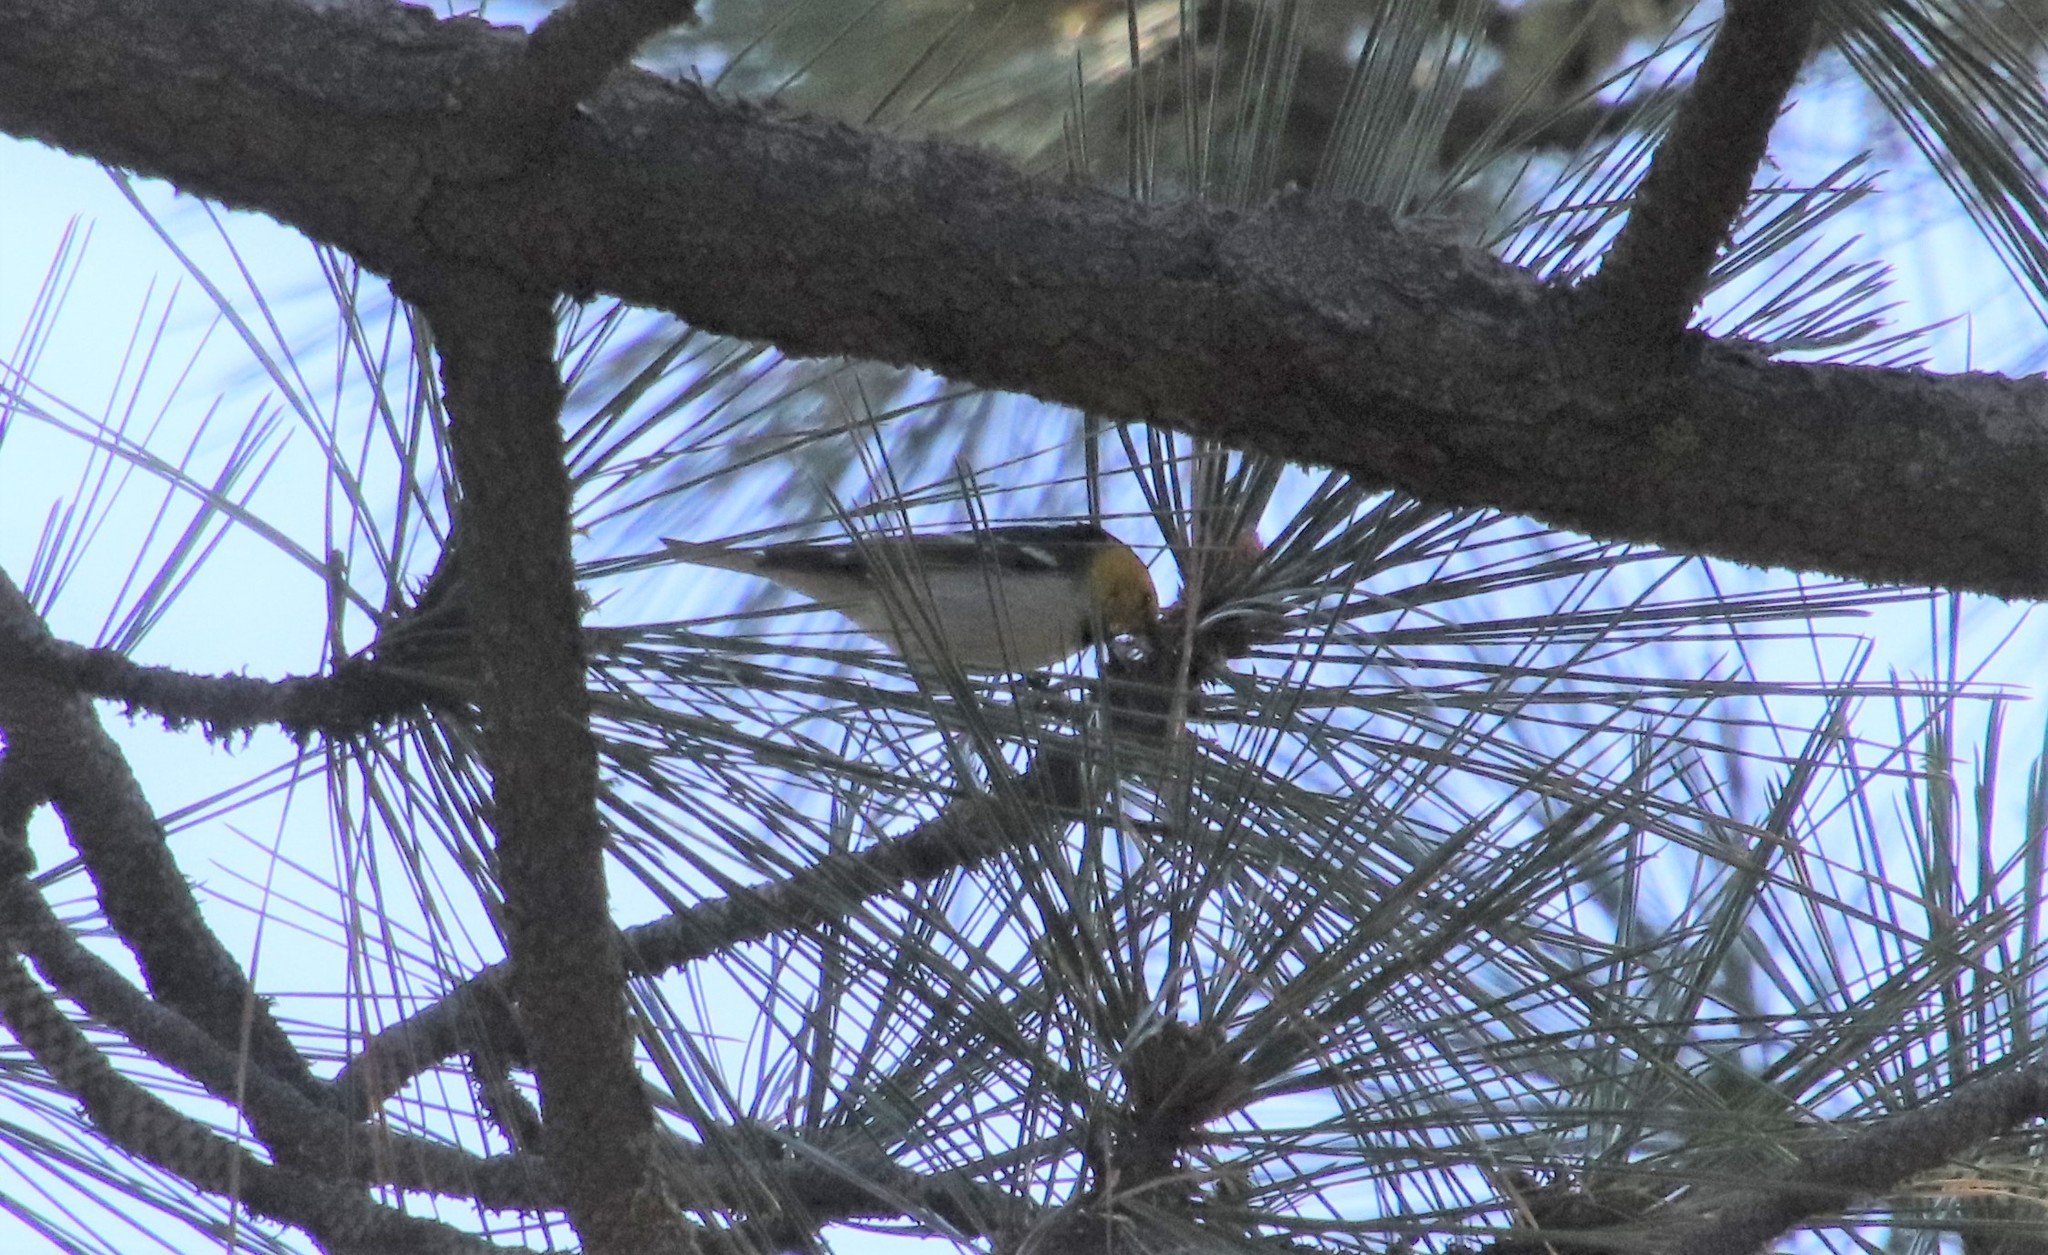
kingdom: Animalia
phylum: Chordata
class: Aves
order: Passeriformes
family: Parulidae
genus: Setophaga
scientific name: Setophaga occidentalis
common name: Hermit warbler
